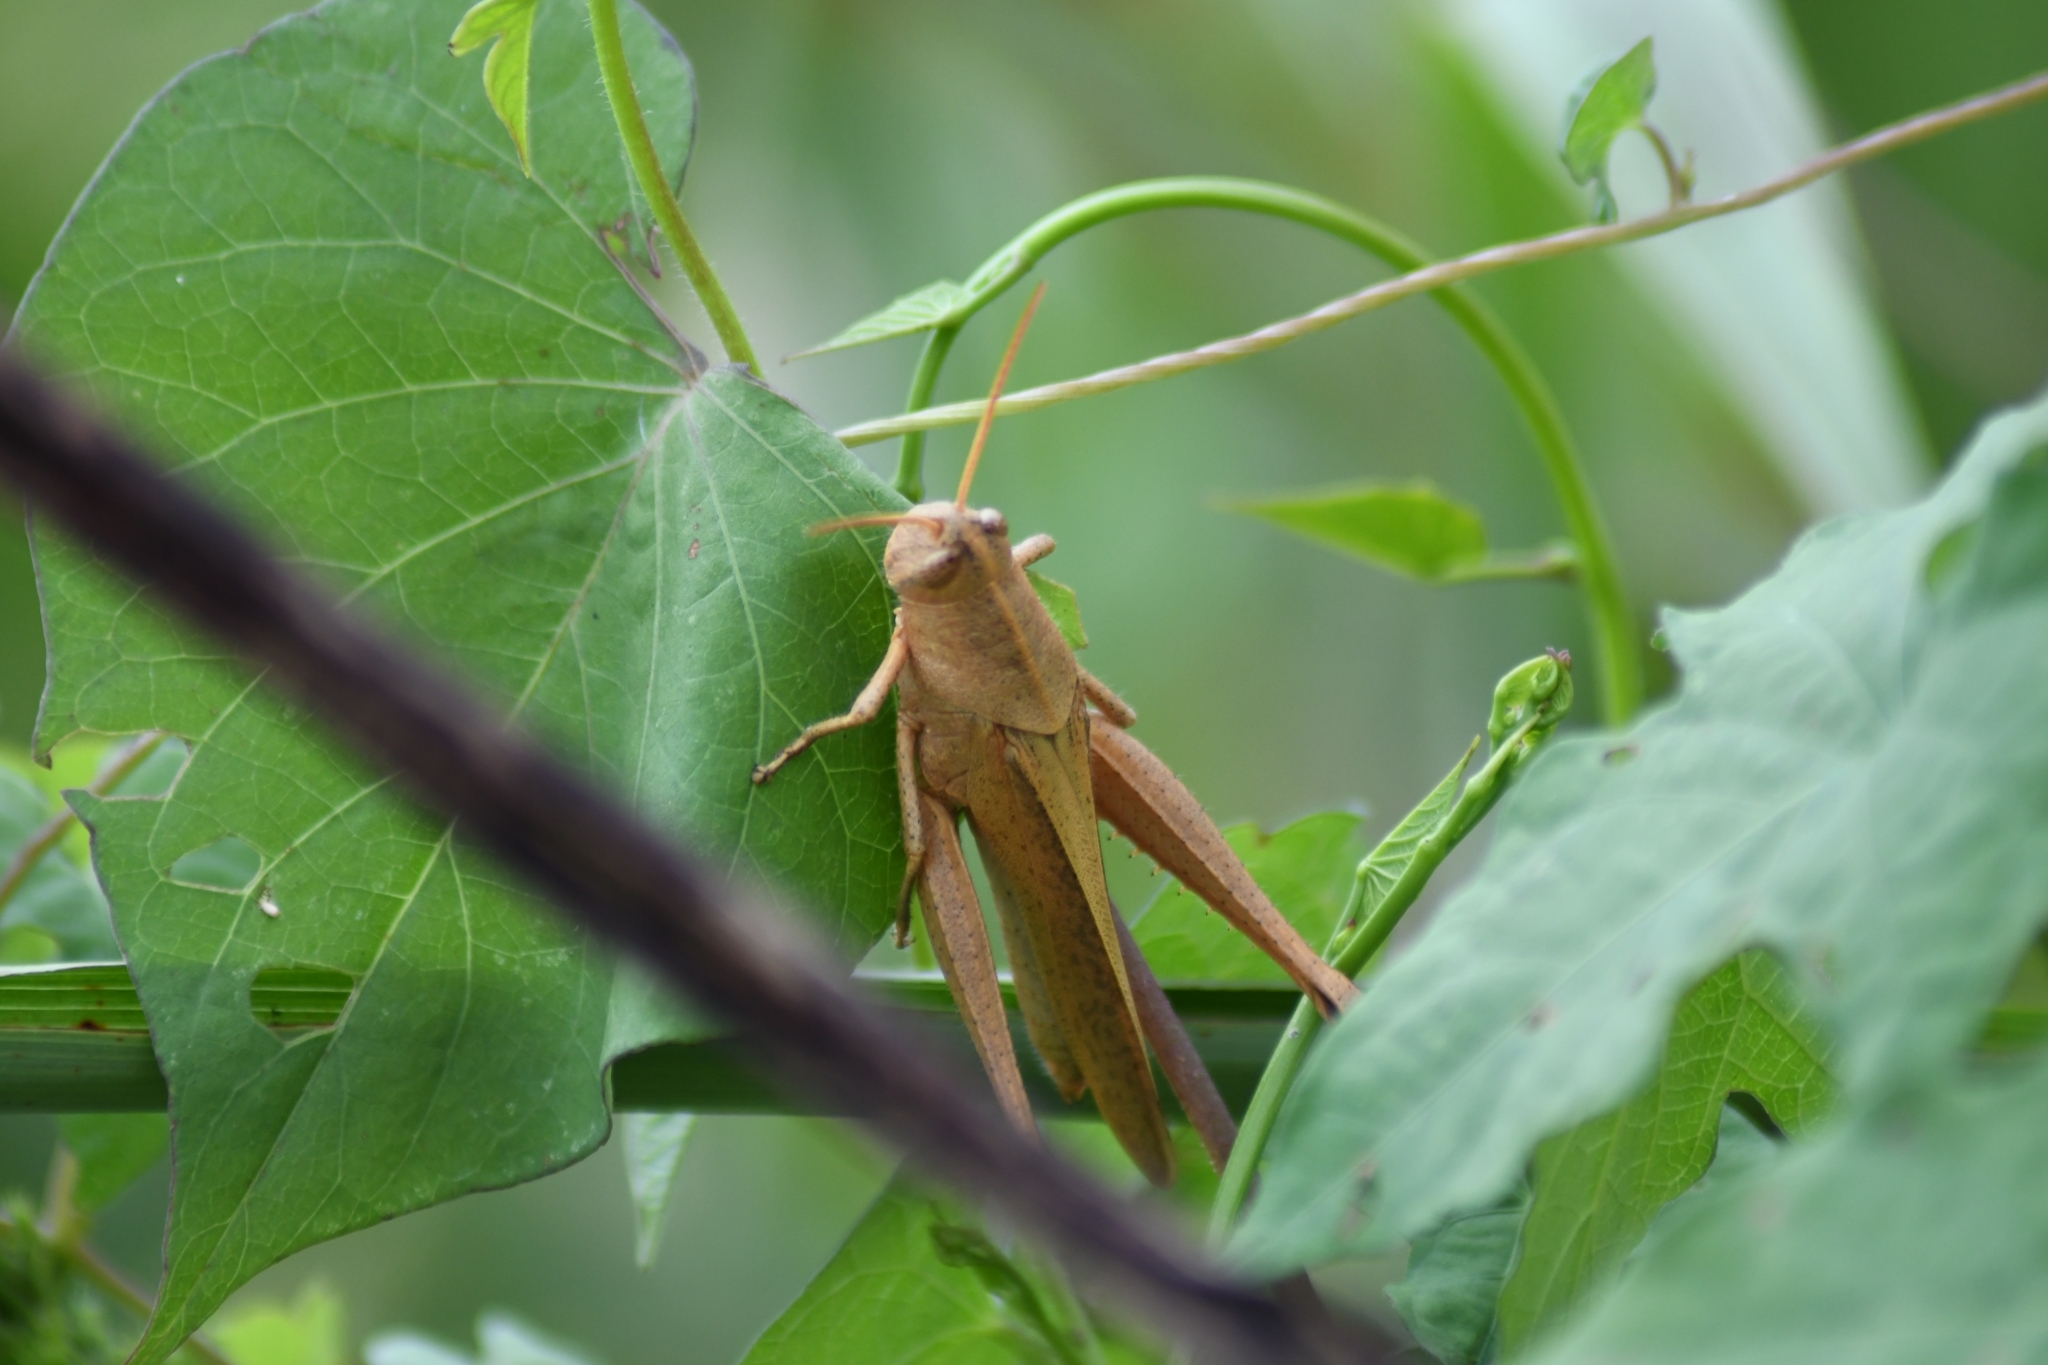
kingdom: Animalia
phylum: Arthropoda
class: Insecta
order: Orthoptera
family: Acrididae
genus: Schistocerca
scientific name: Schistocerca damnifica
